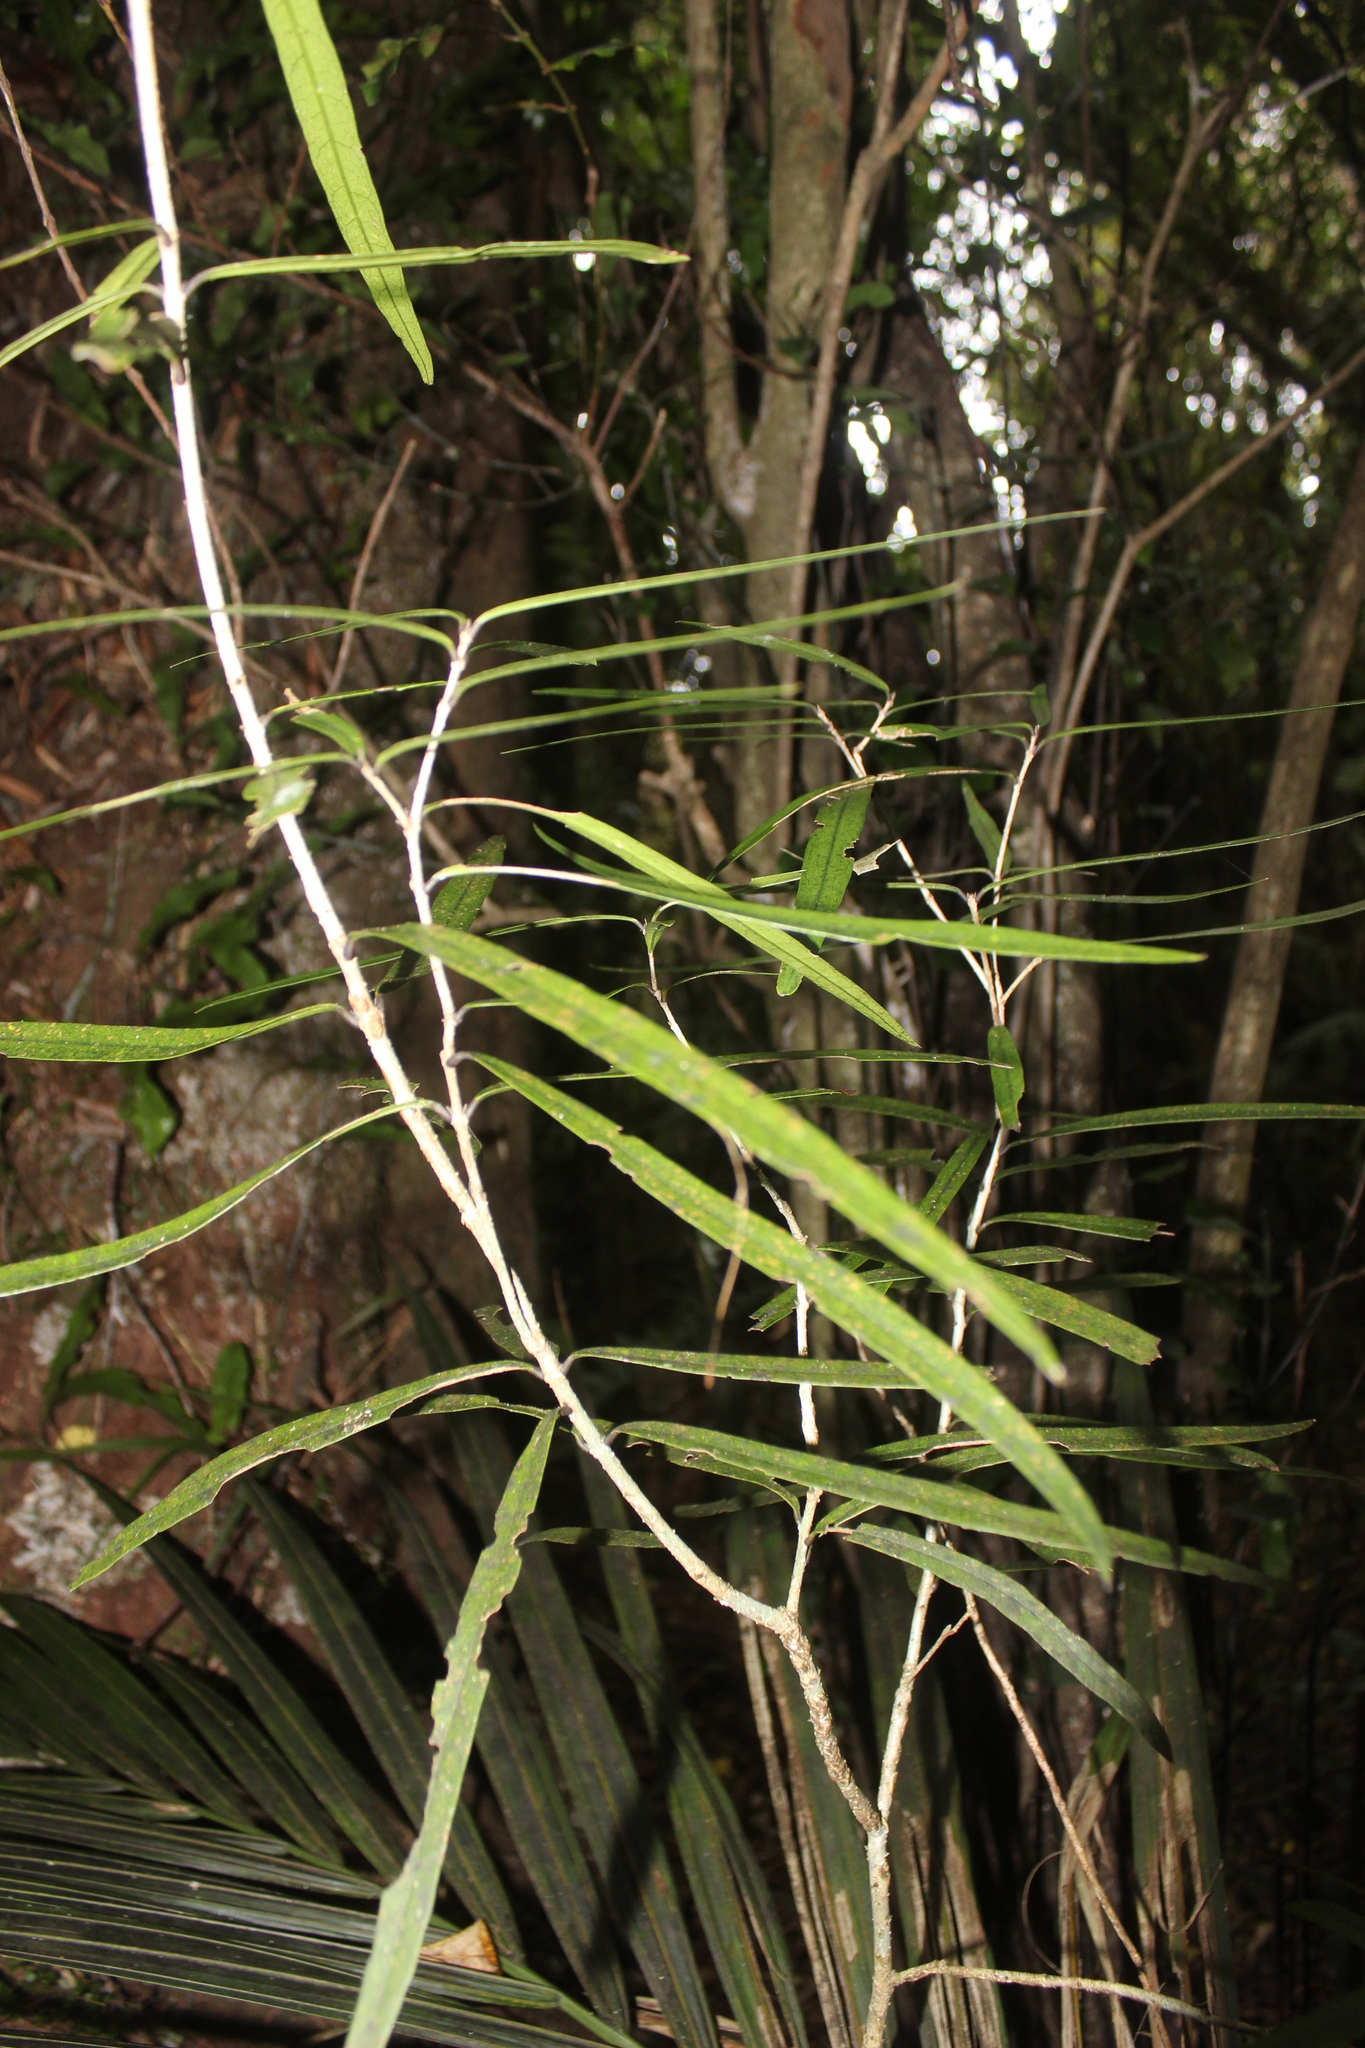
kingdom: Plantae
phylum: Tracheophyta
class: Magnoliopsida
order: Lamiales
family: Oleaceae
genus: Nestegis
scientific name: Nestegis lanceolata
